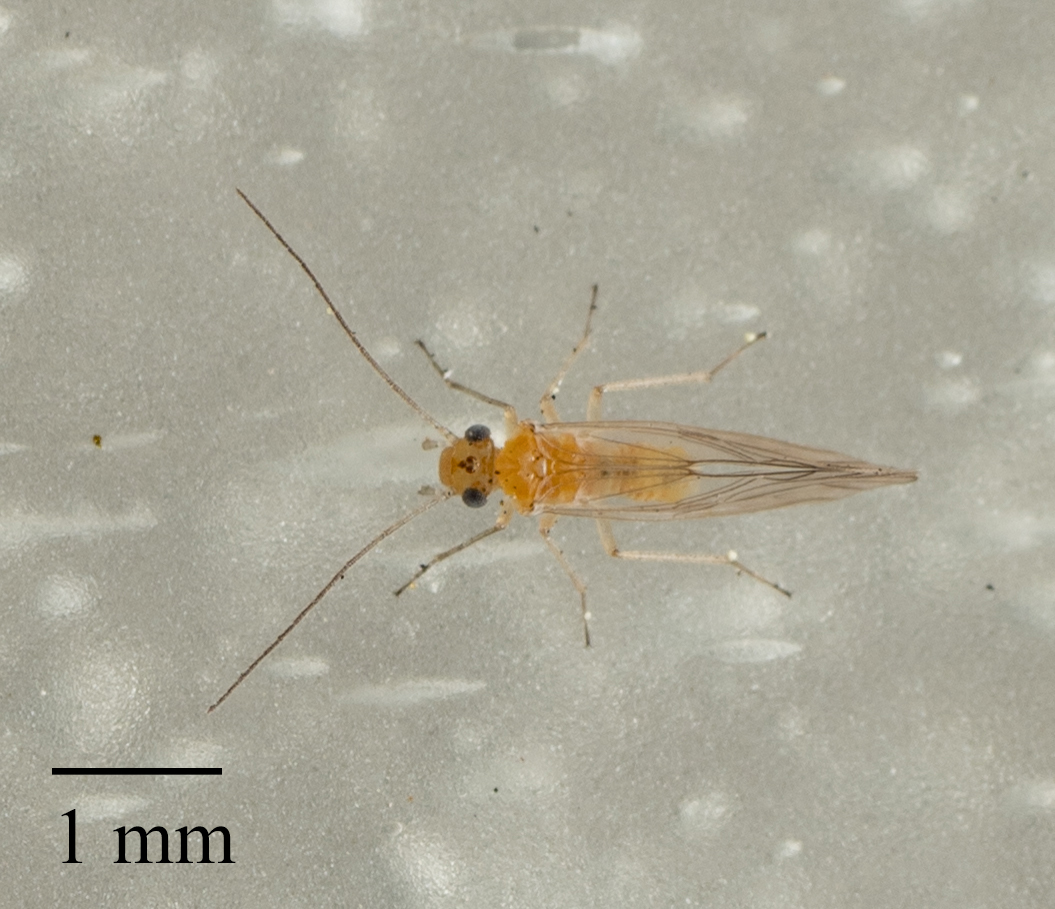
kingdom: Animalia
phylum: Arthropoda
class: Insecta
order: Psocodea
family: Elipsocidae
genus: Cuneopalpus
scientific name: Cuneopalpus cyanops
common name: Booklice
